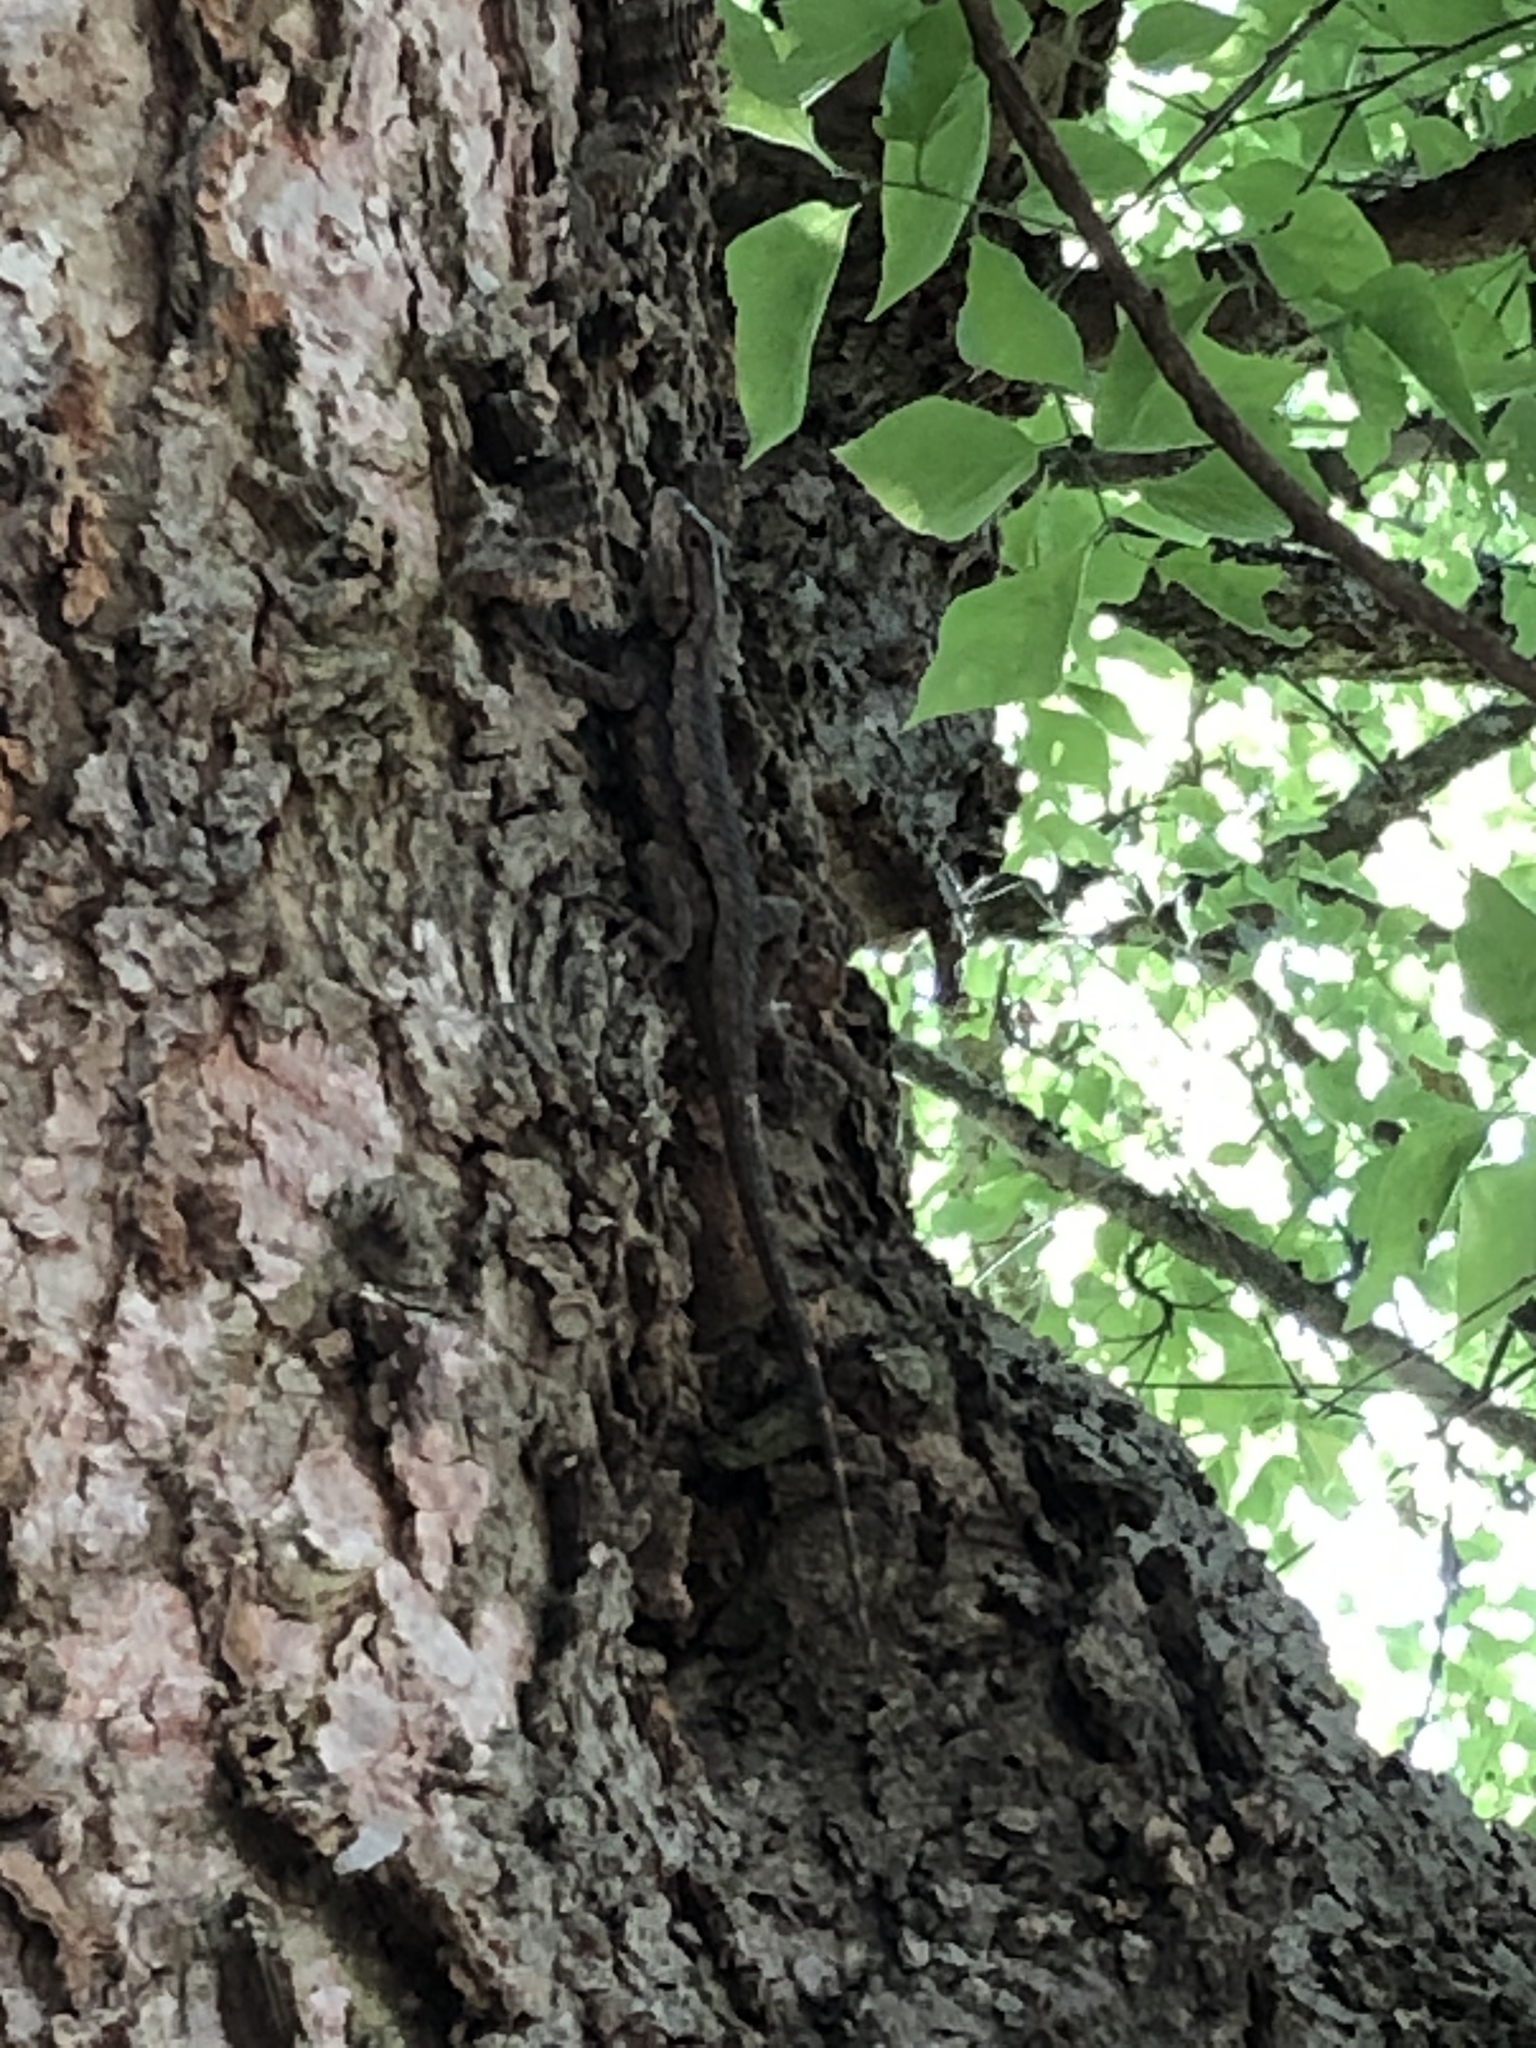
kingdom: Animalia
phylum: Chordata
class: Squamata
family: Phrynosomatidae
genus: Sceloporus
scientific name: Sceloporus olivaceus
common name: Texas spiny lizard
